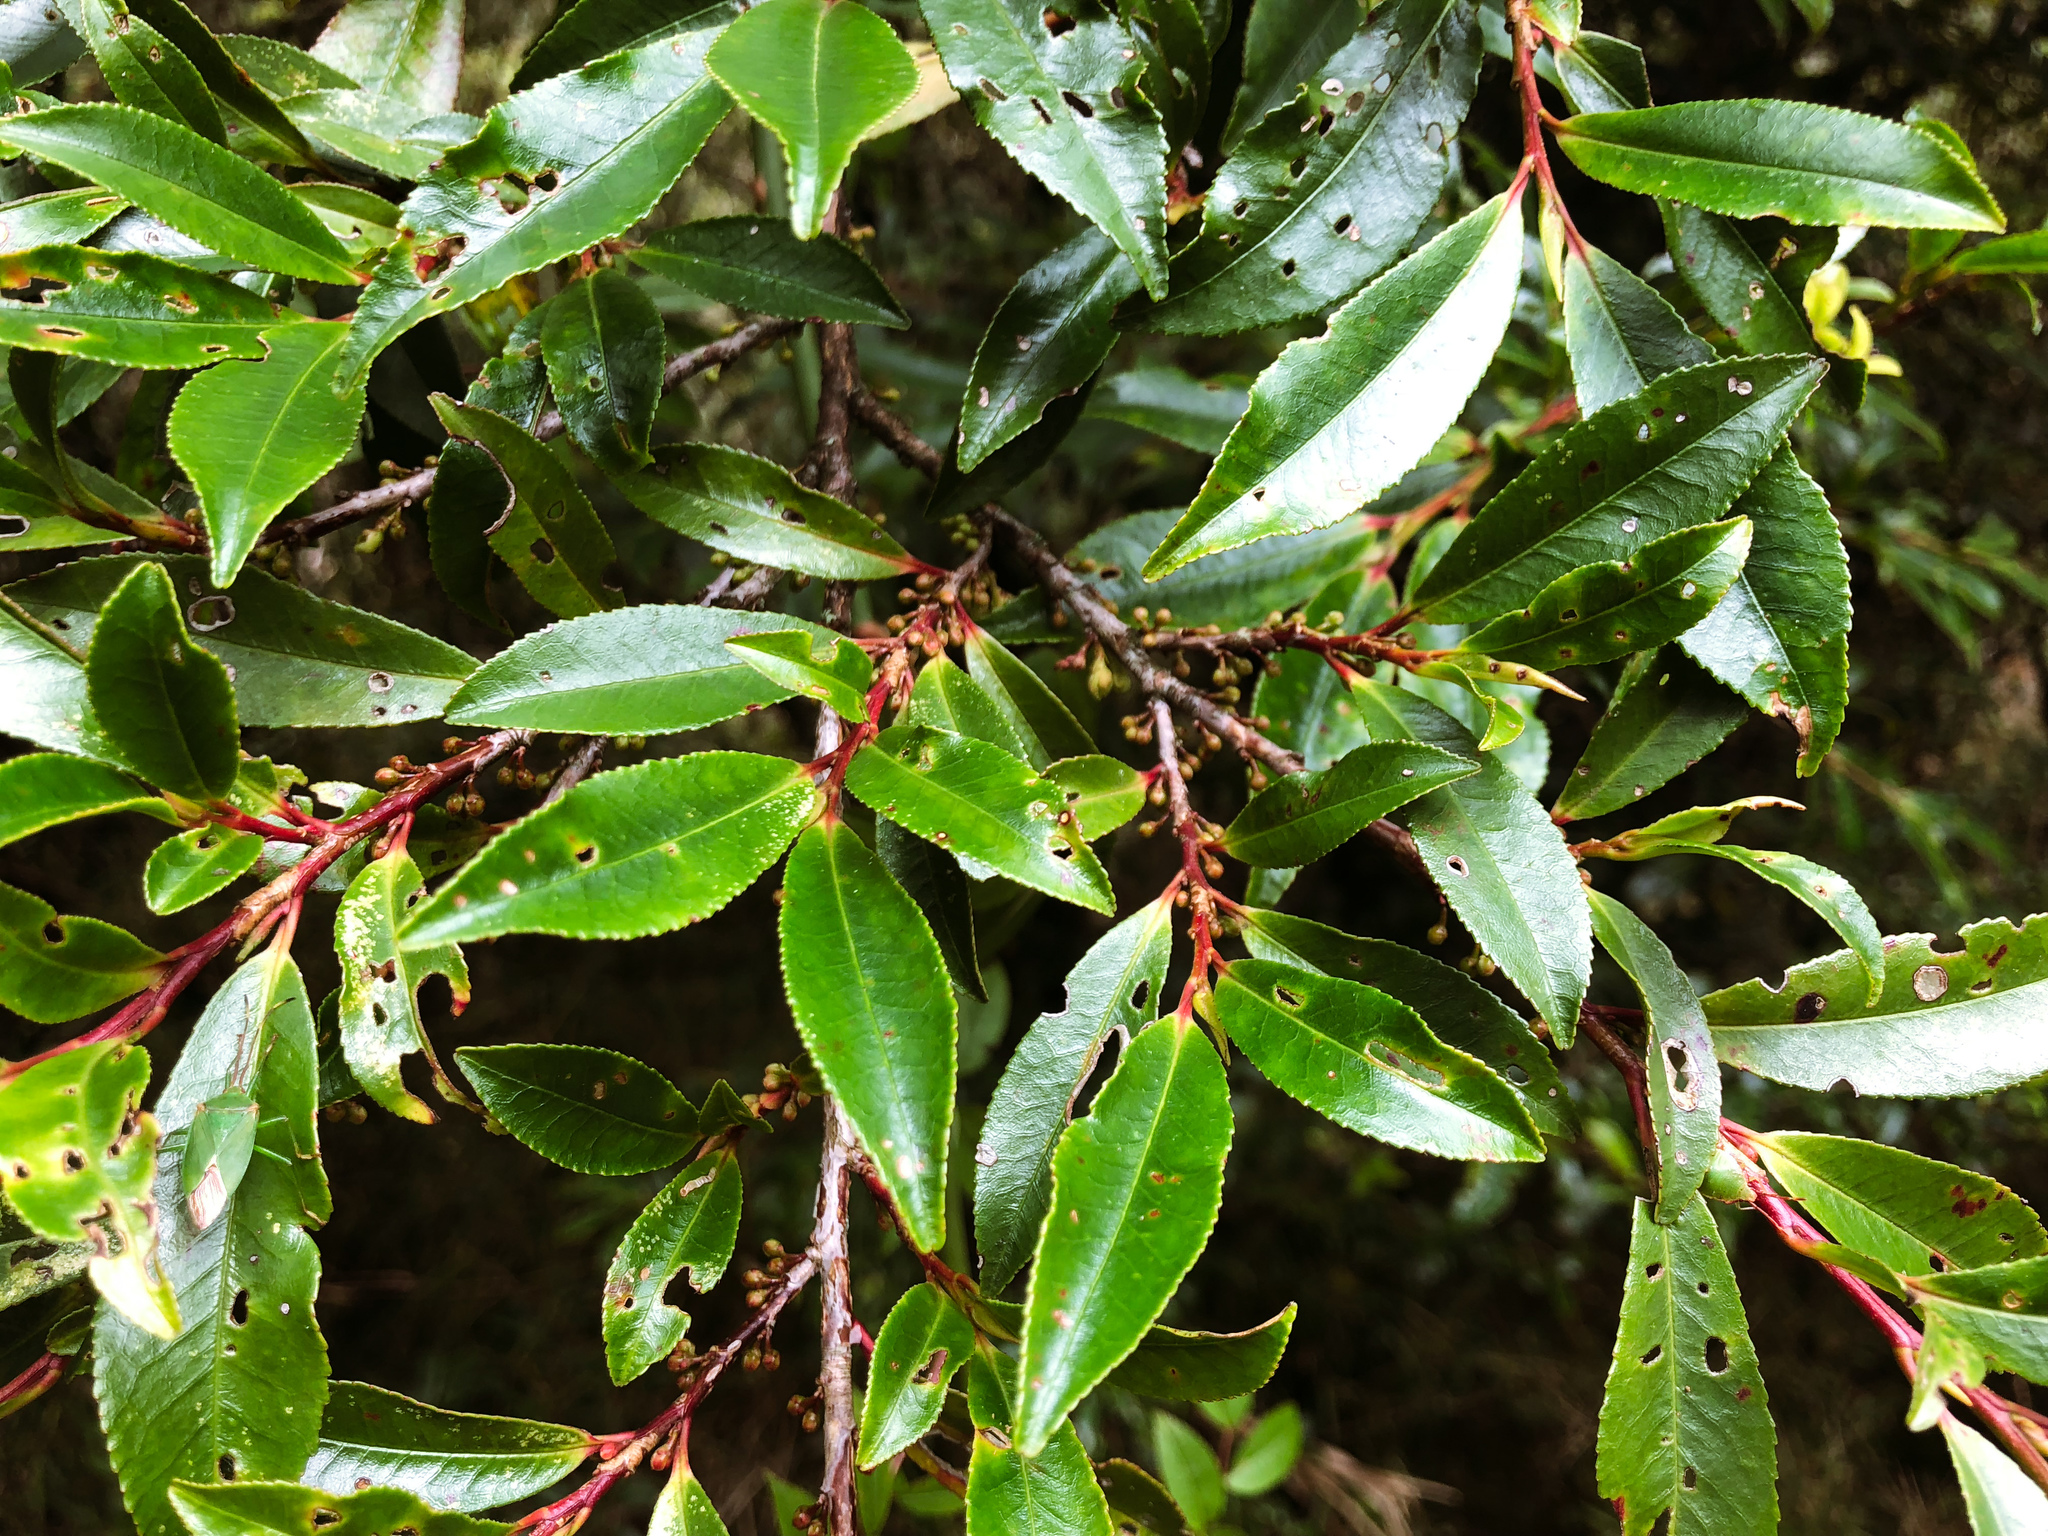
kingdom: Plantae
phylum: Tracheophyta
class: Magnoliopsida
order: Ericales
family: Pentaphylacaceae
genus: Eurya
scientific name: Eurya glaberrima
